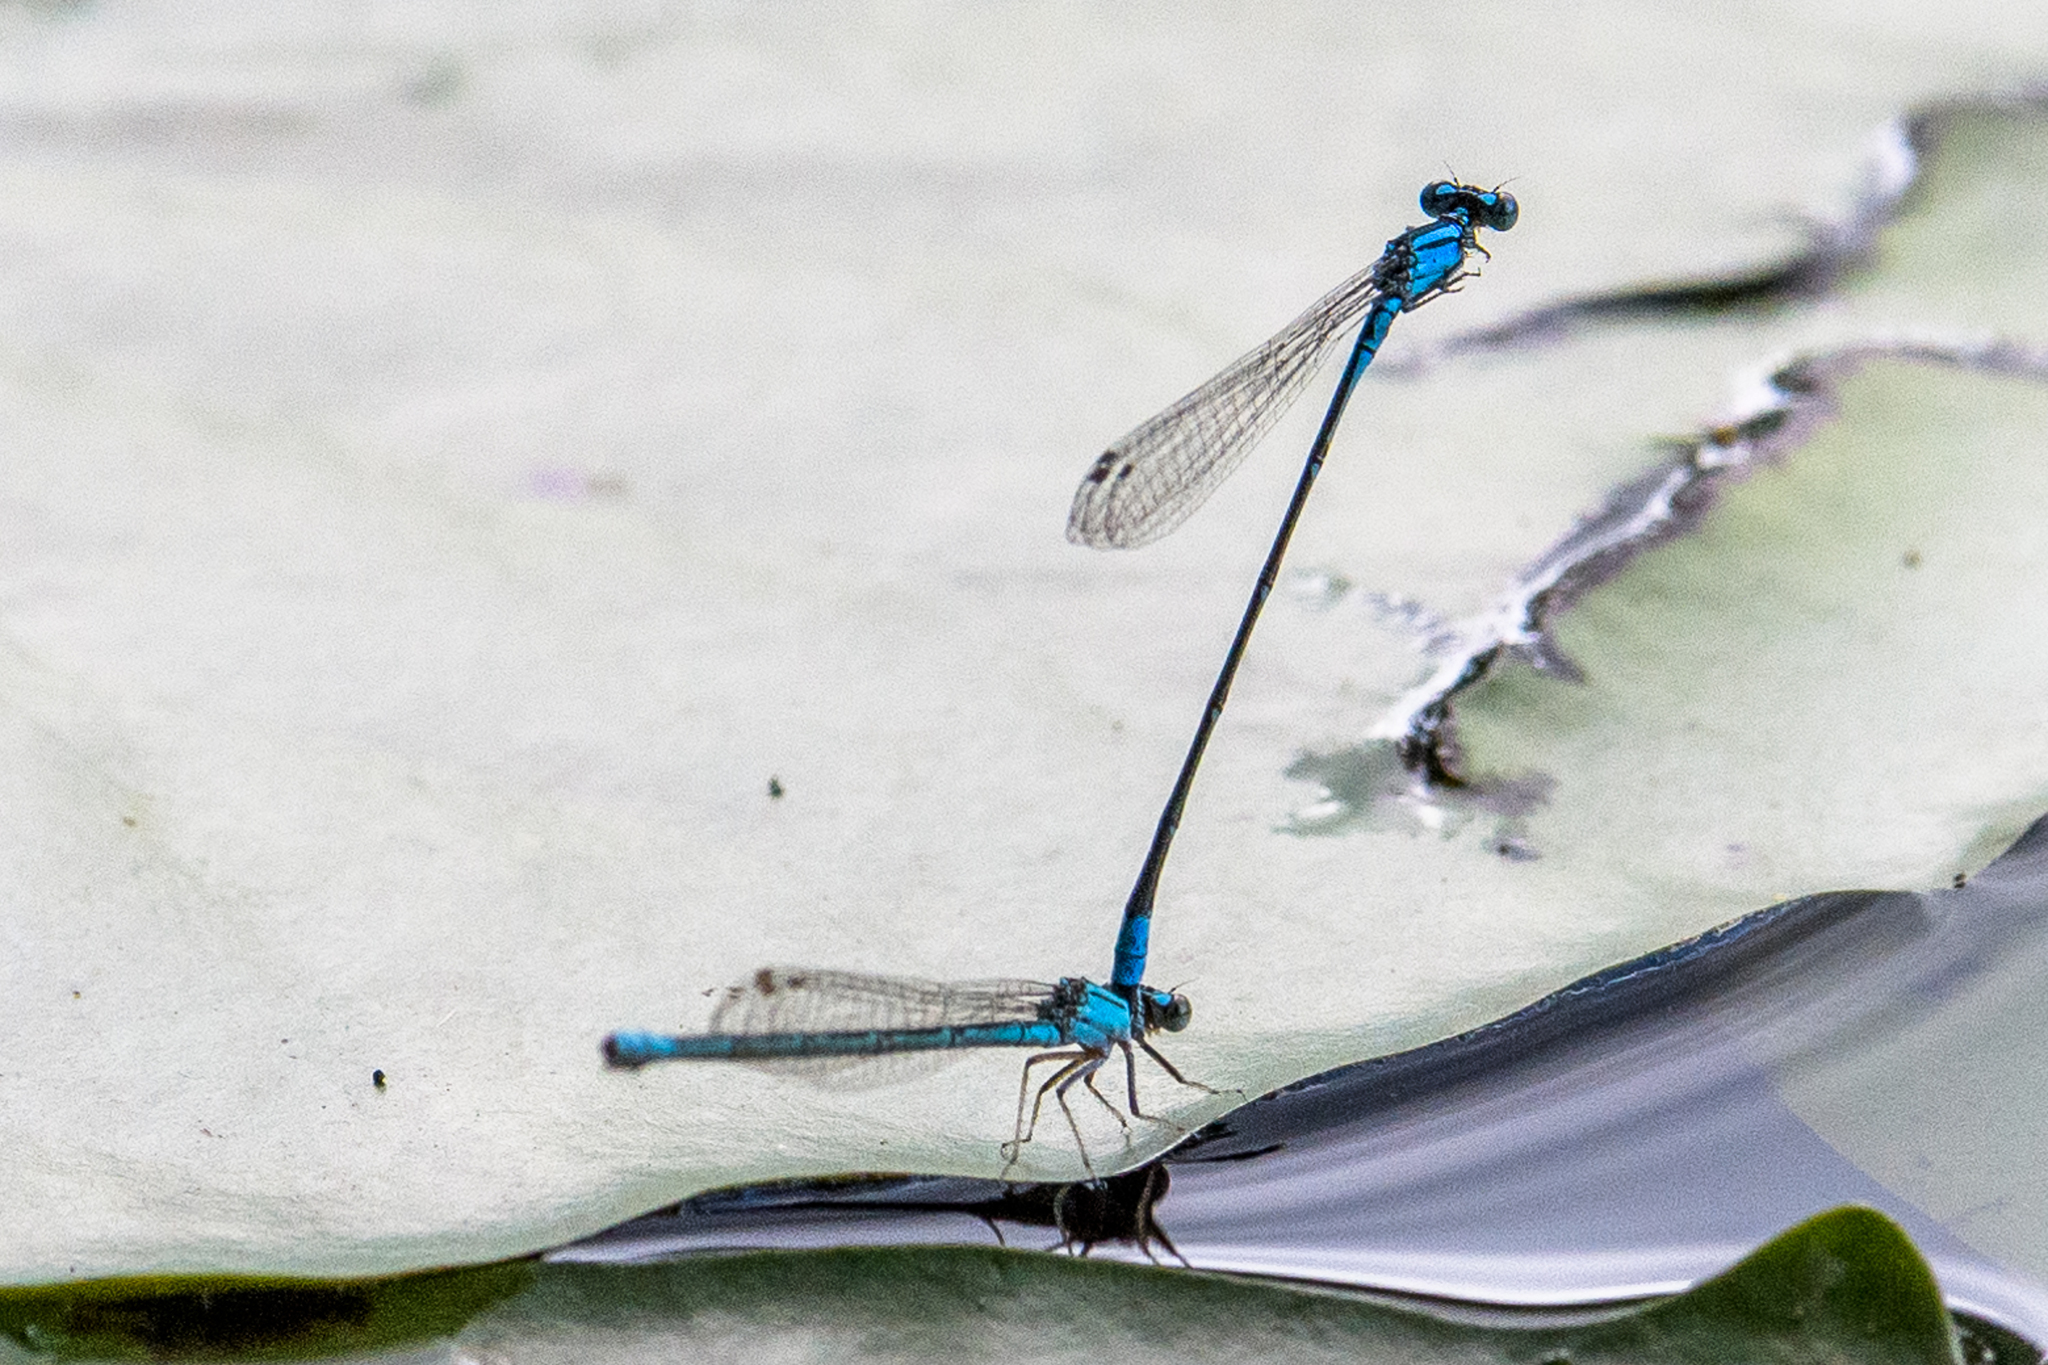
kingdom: Animalia
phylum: Arthropoda
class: Insecta
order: Odonata
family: Coenagrionidae
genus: Enallagma
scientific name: Enallagma traviatum
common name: Slender bluet
